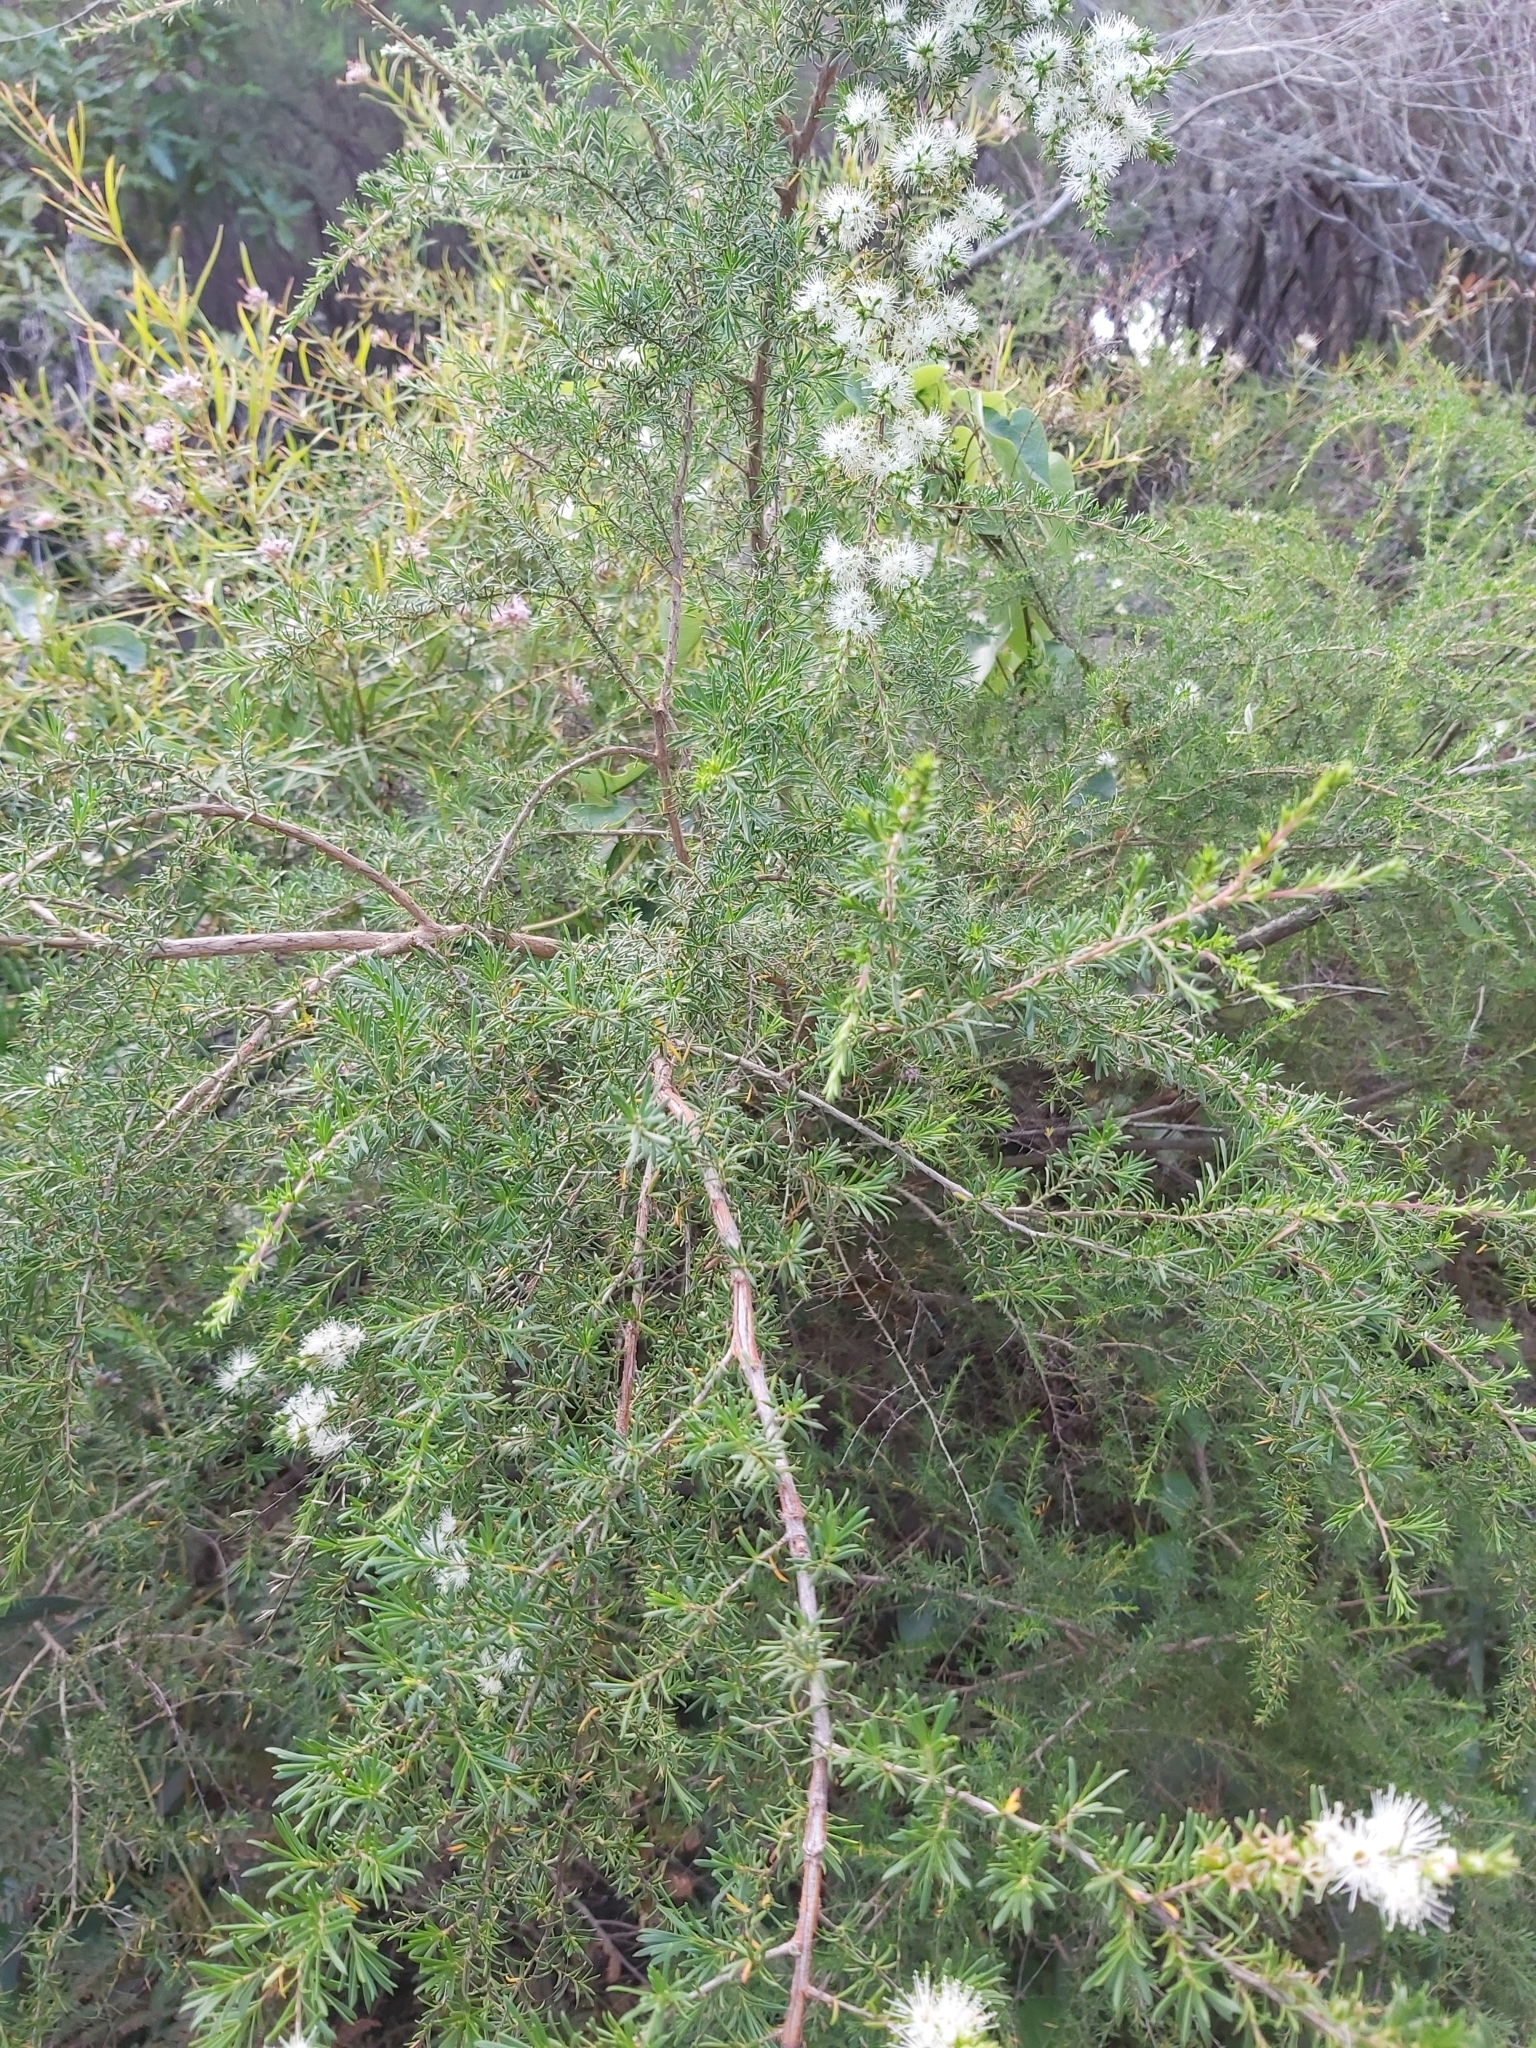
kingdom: Plantae
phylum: Tracheophyta
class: Magnoliopsida
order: Myrtales
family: Myrtaceae
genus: Kunzea
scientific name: Kunzea ambigua
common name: Tickbush
